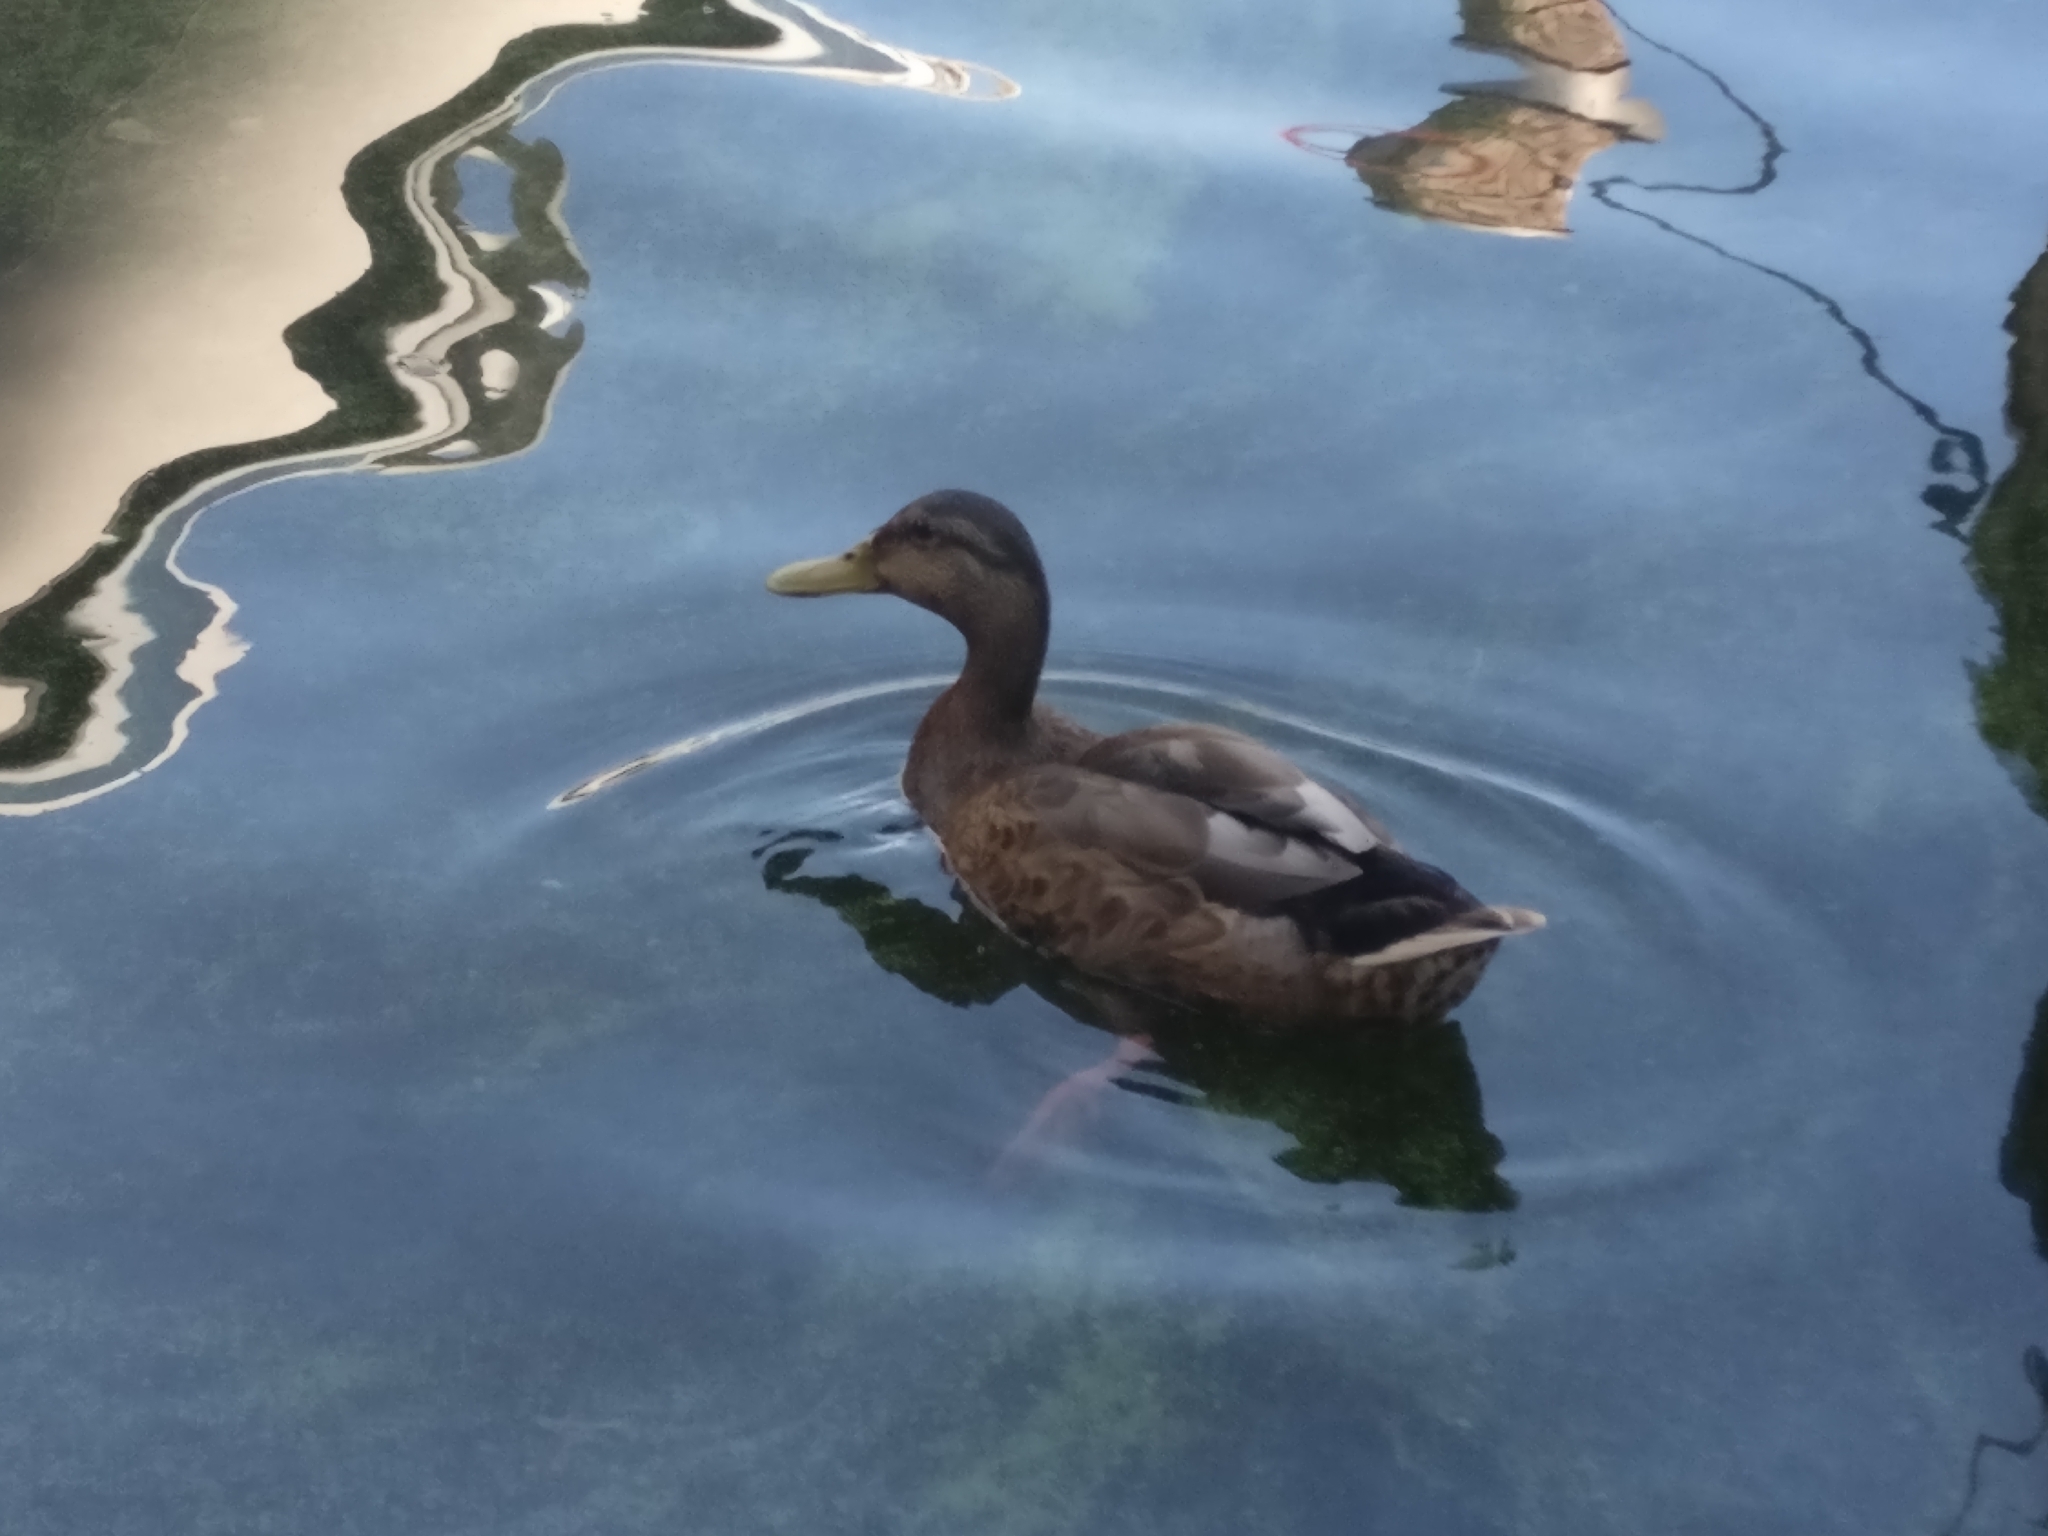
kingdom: Animalia
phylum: Chordata
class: Aves
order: Anseriformes
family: Anatidae
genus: Anas
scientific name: Anas platyrhynchos
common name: Mallard
